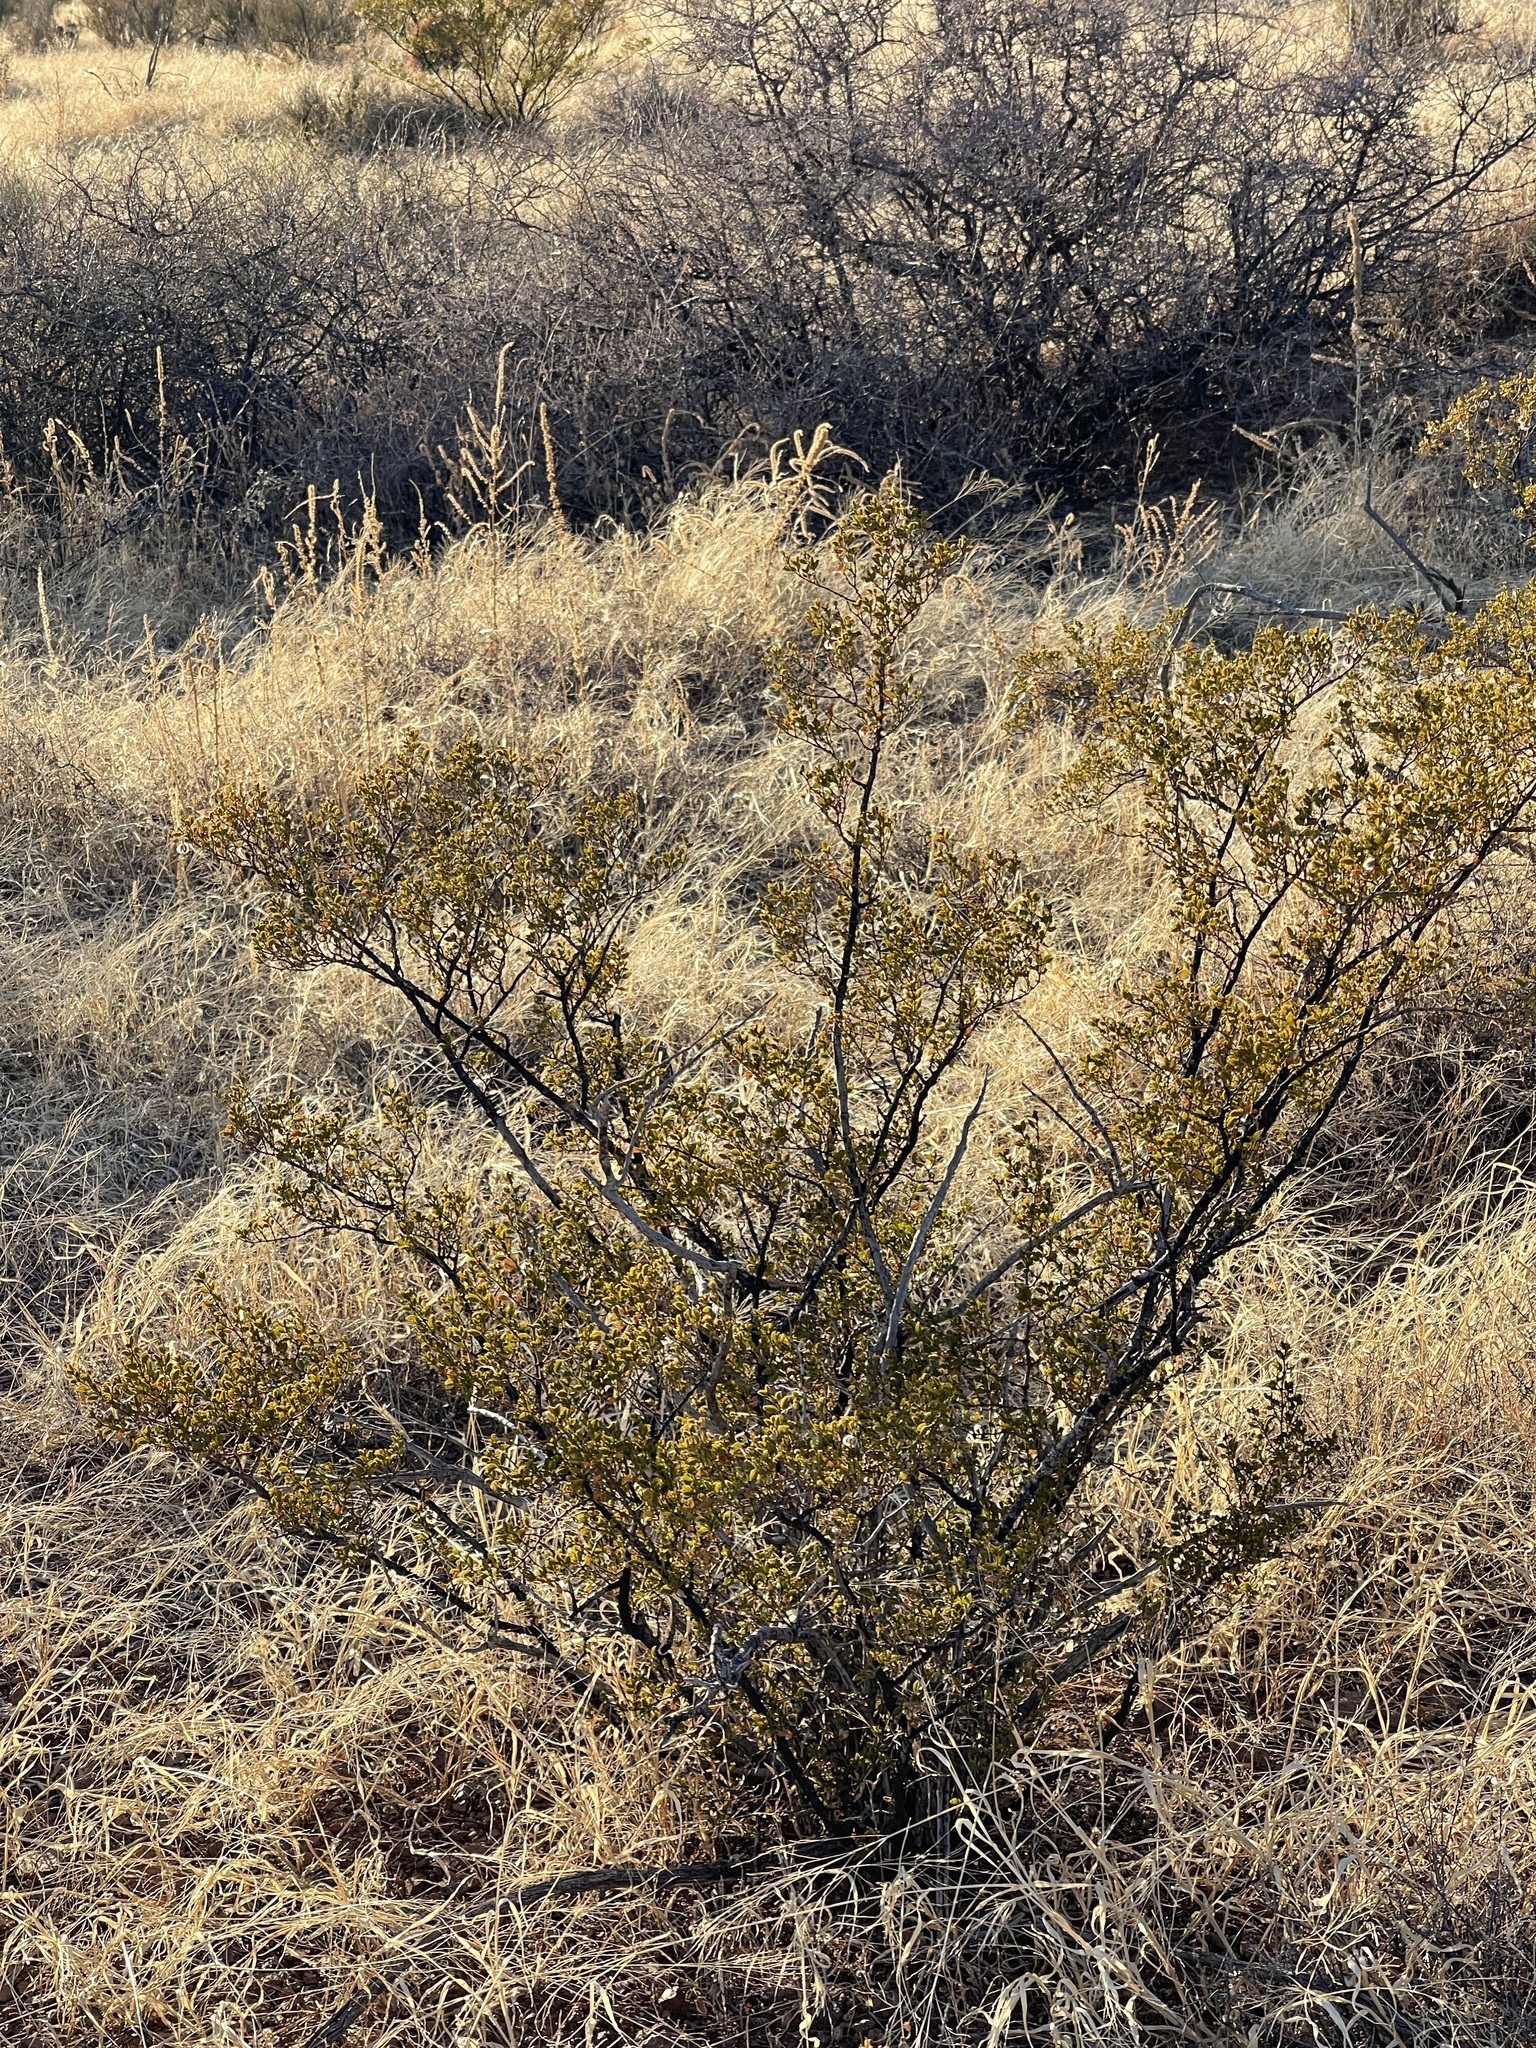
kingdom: Plantae
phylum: Tracheophyta
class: Magnoliopsida
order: Zygophyllales
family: Zygophyllaceae
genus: Larrea
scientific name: Larrea tridentata
